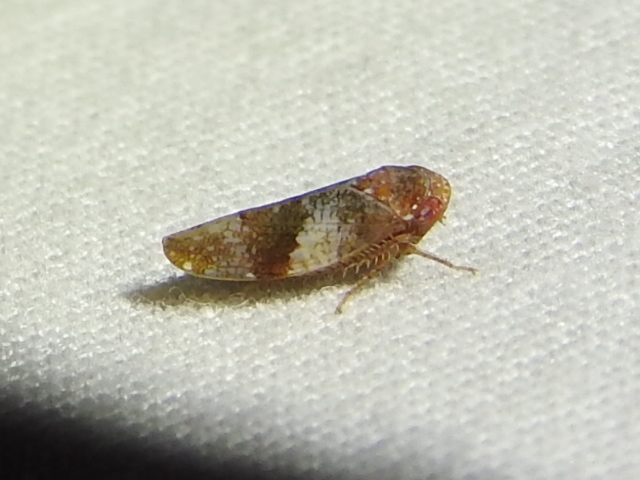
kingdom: Animalia
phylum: Arthropoda
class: Insecta
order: Hemiptera
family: Cicadellidae
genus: Norvellina
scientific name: Norvellina helenae
